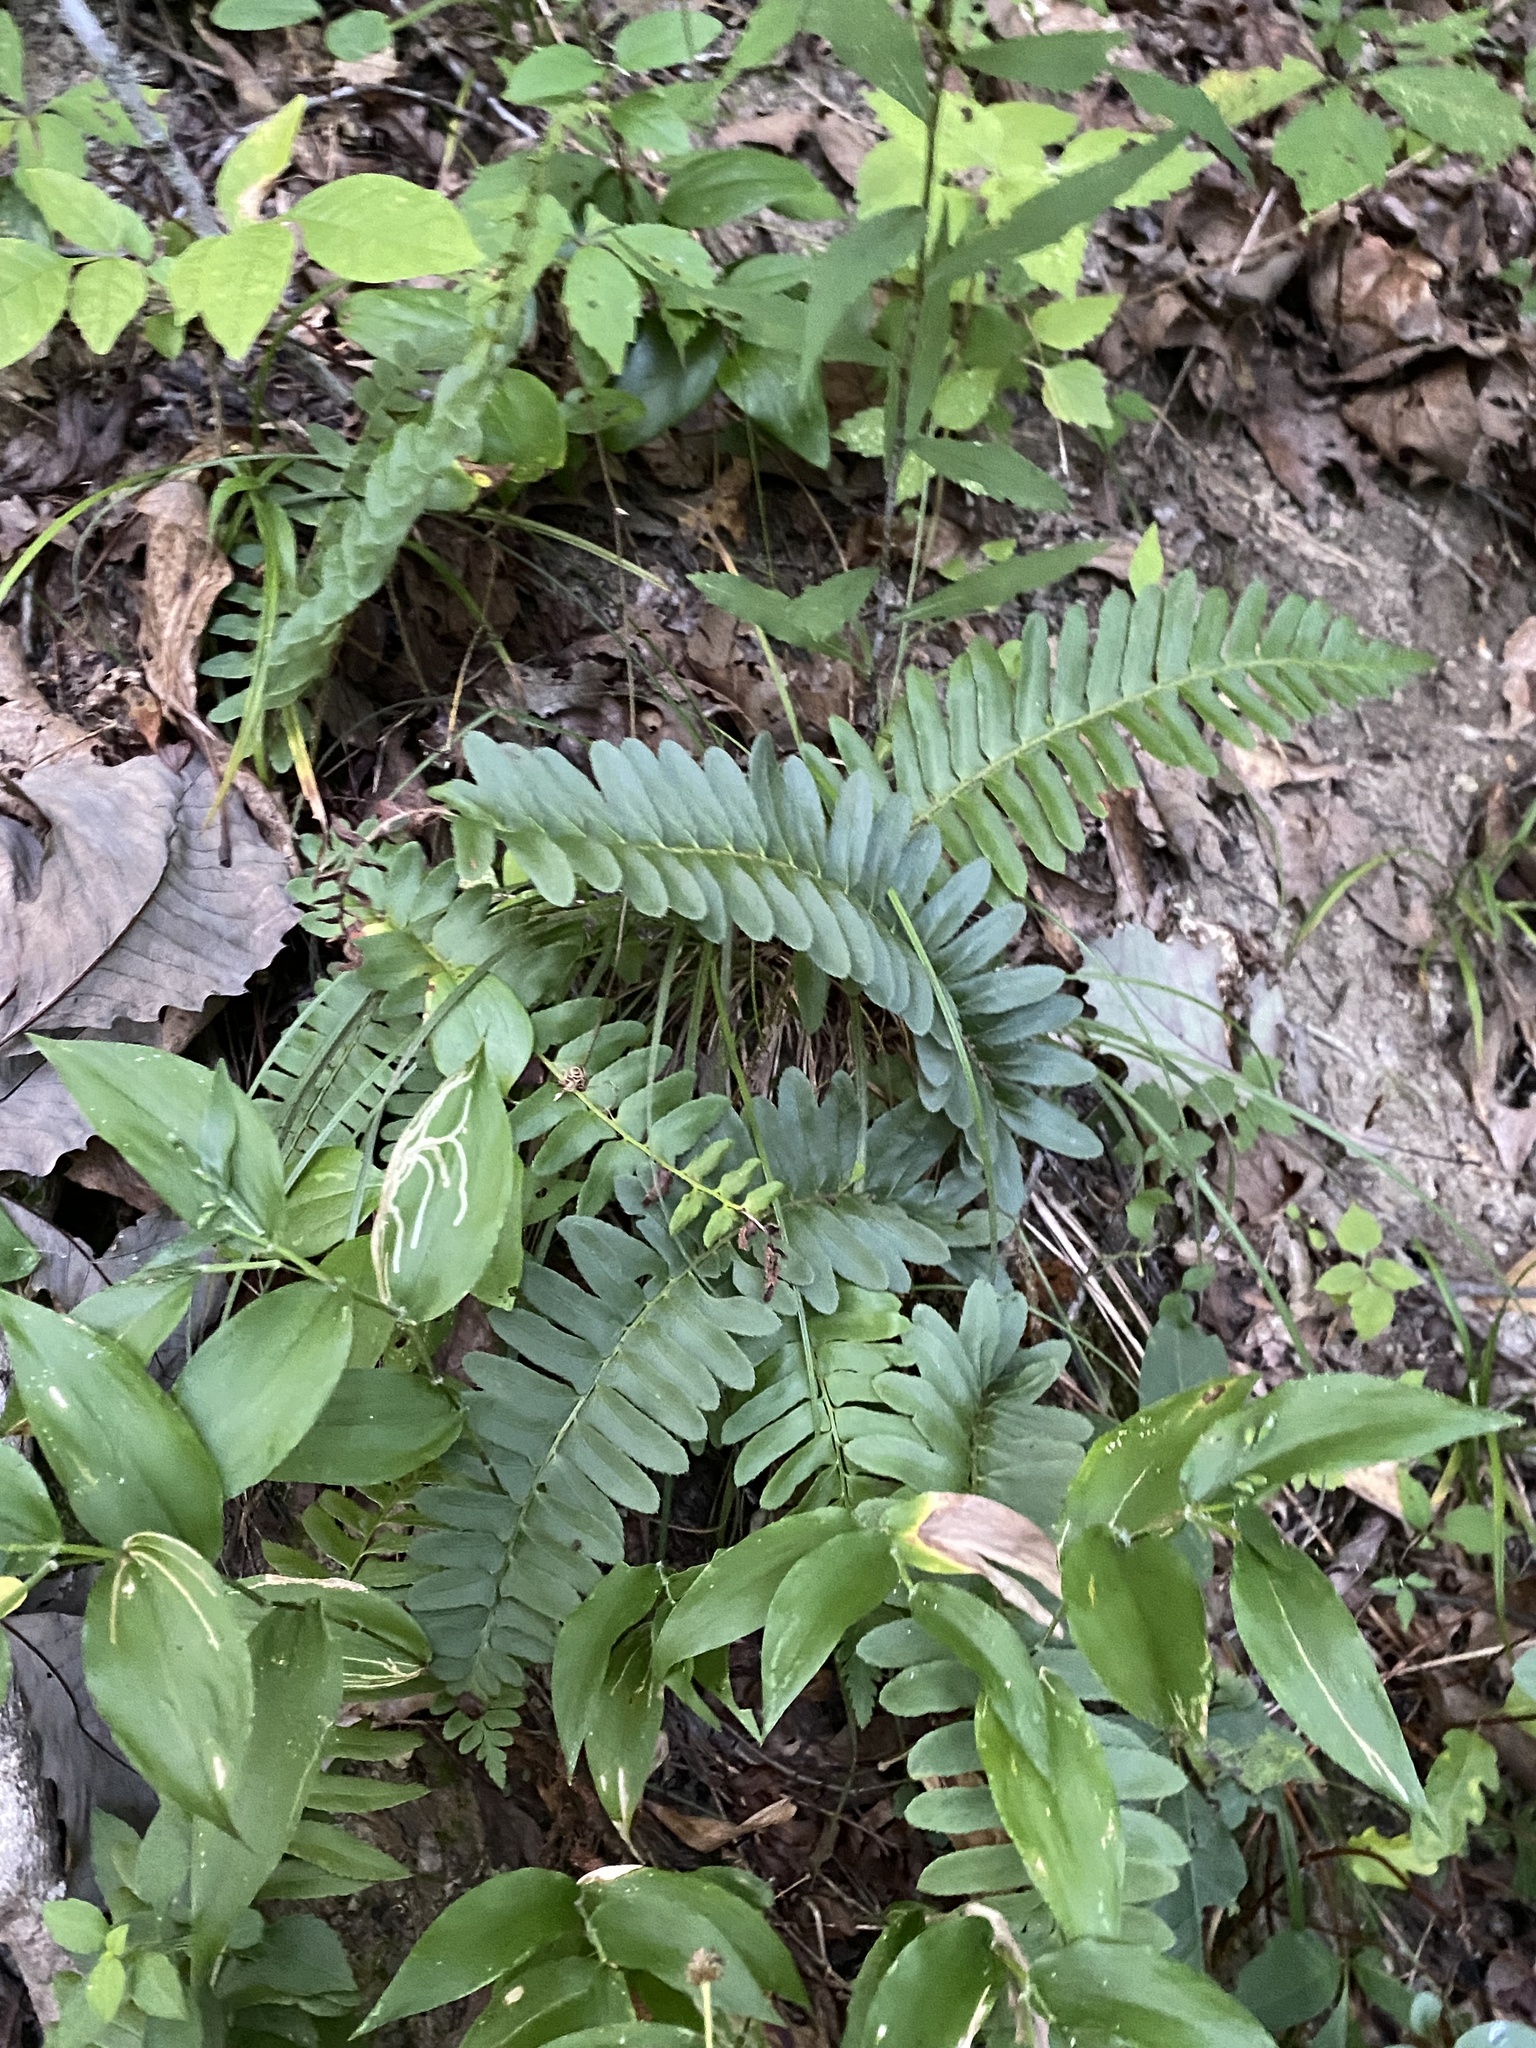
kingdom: Plantae
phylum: Tracheophyta
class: Polypodiopsida
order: Polypodiales
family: Dryopteridaceae
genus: Polystichum
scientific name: Polystichum acrostichoides
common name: Christmas fern
